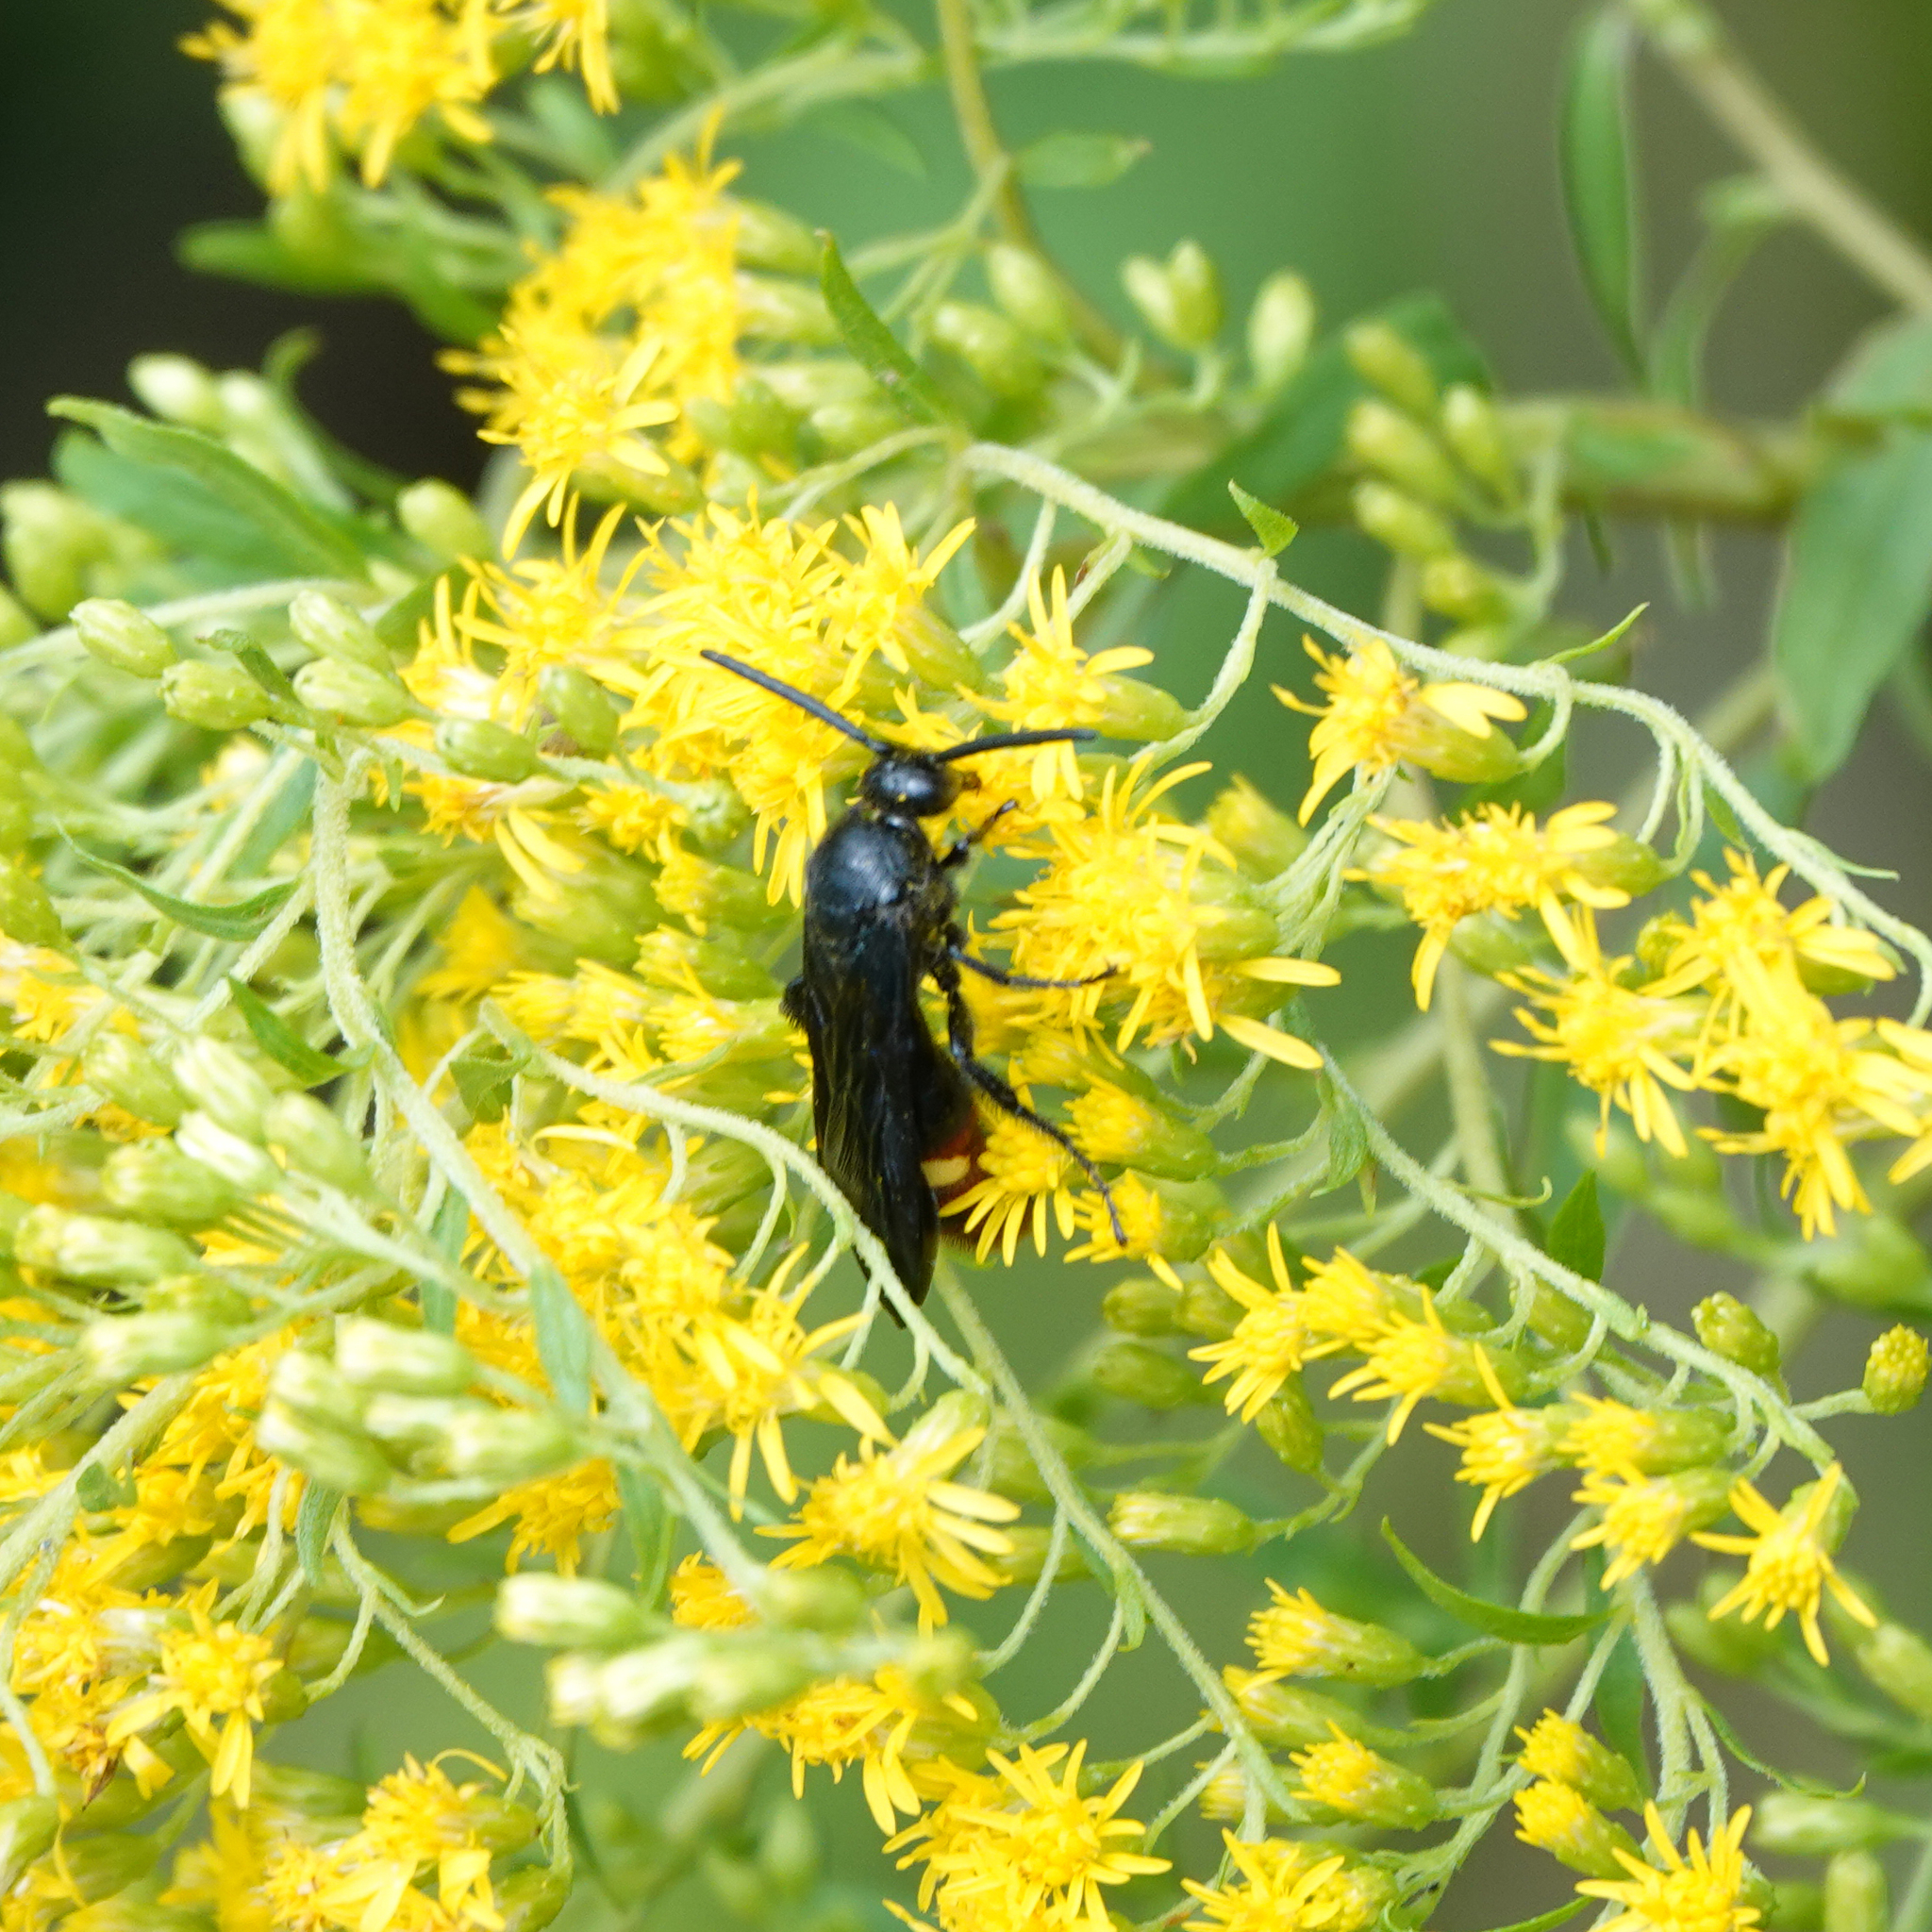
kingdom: Animalia
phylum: Arthropoda
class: Insecta
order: Hymenoptera
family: Scoliidae
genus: Scolia
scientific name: Scolia dubia
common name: Blue-winged scoliid wasp
